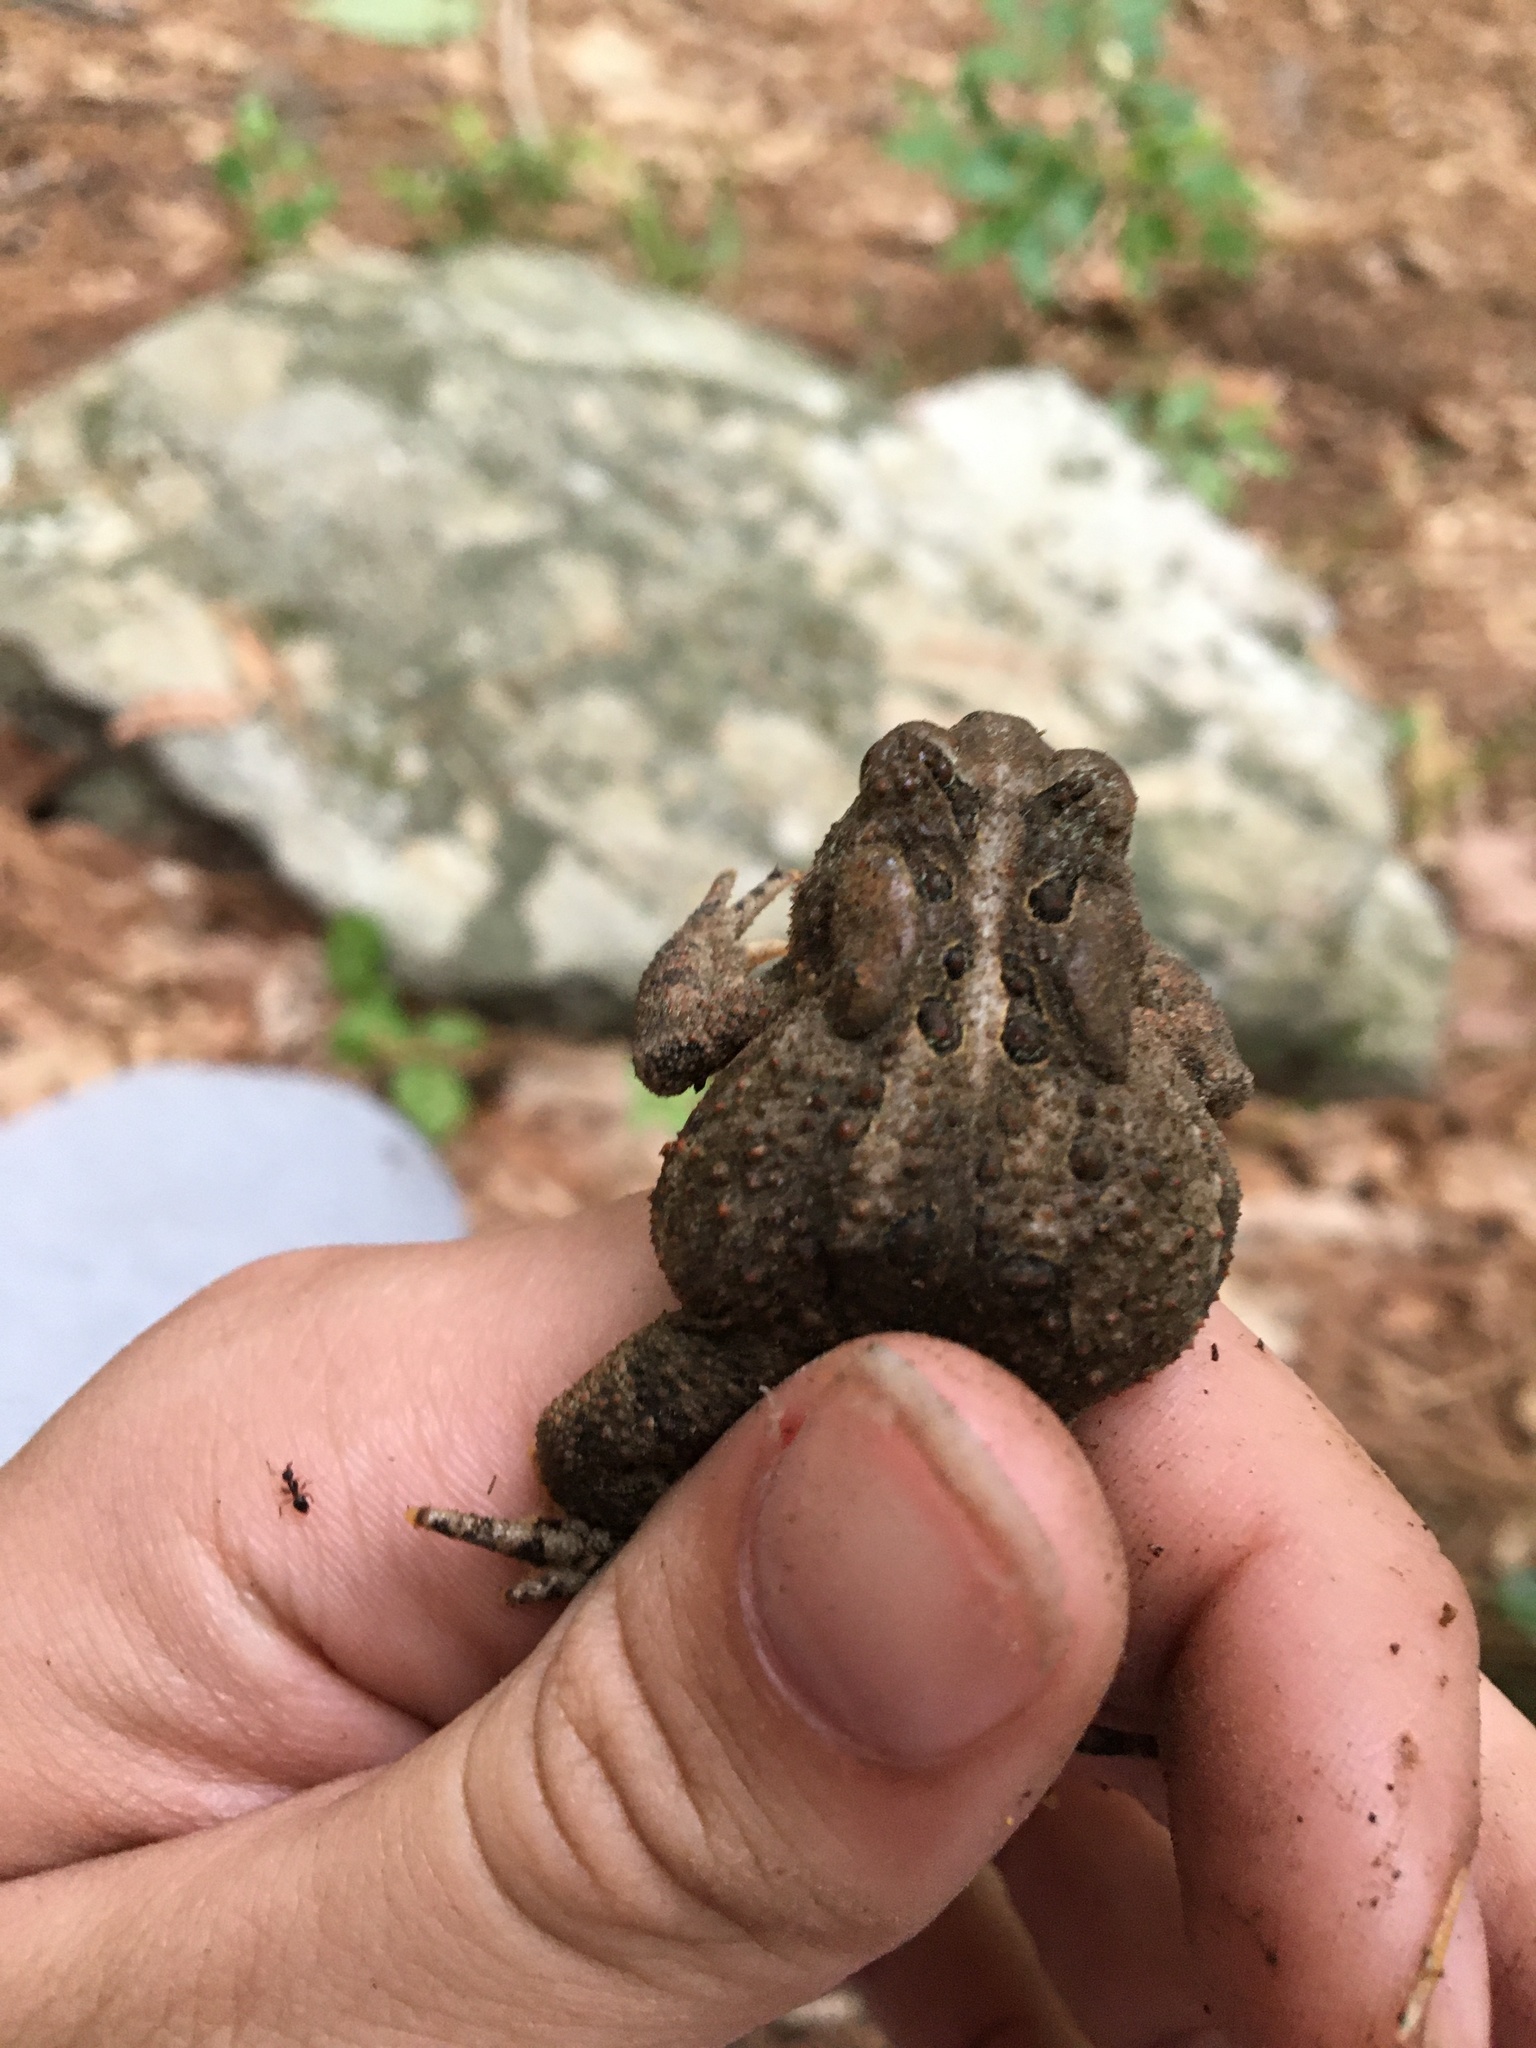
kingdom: Animalia
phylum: Chordata
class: Amphibia
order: Anura
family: Bufonidae
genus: Anaxyrus
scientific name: Anaxyrus americanus
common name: American toad
